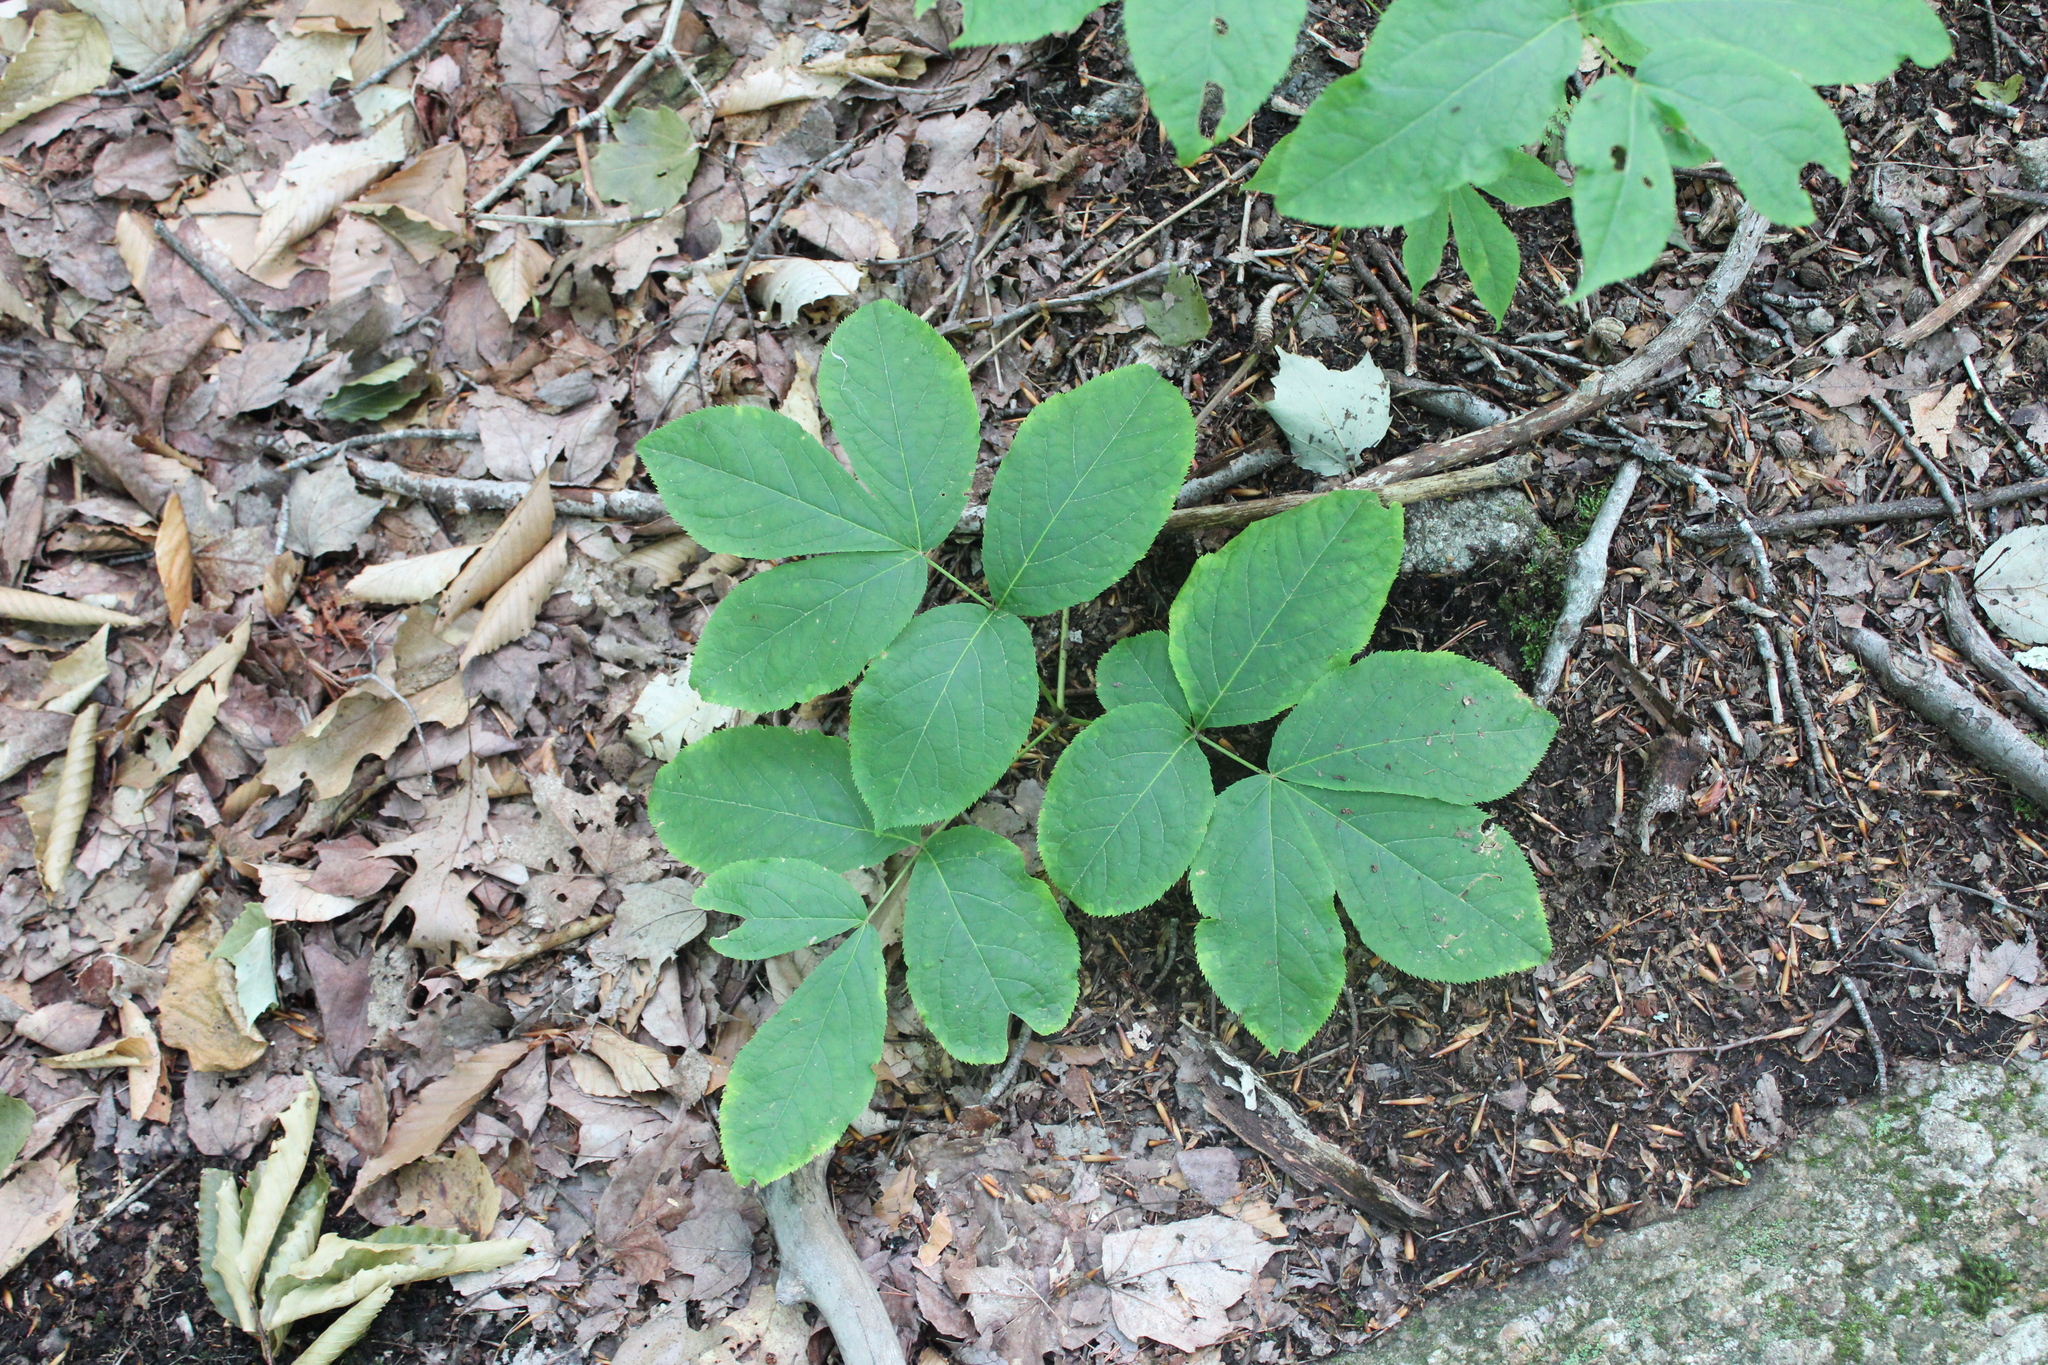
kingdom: Plantae
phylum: Tracheophyta
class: Magnoliopsida
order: Apiales
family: Araliaceae
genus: Aralia
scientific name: Aralia nudicaulis
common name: Wild sarsaparilla
